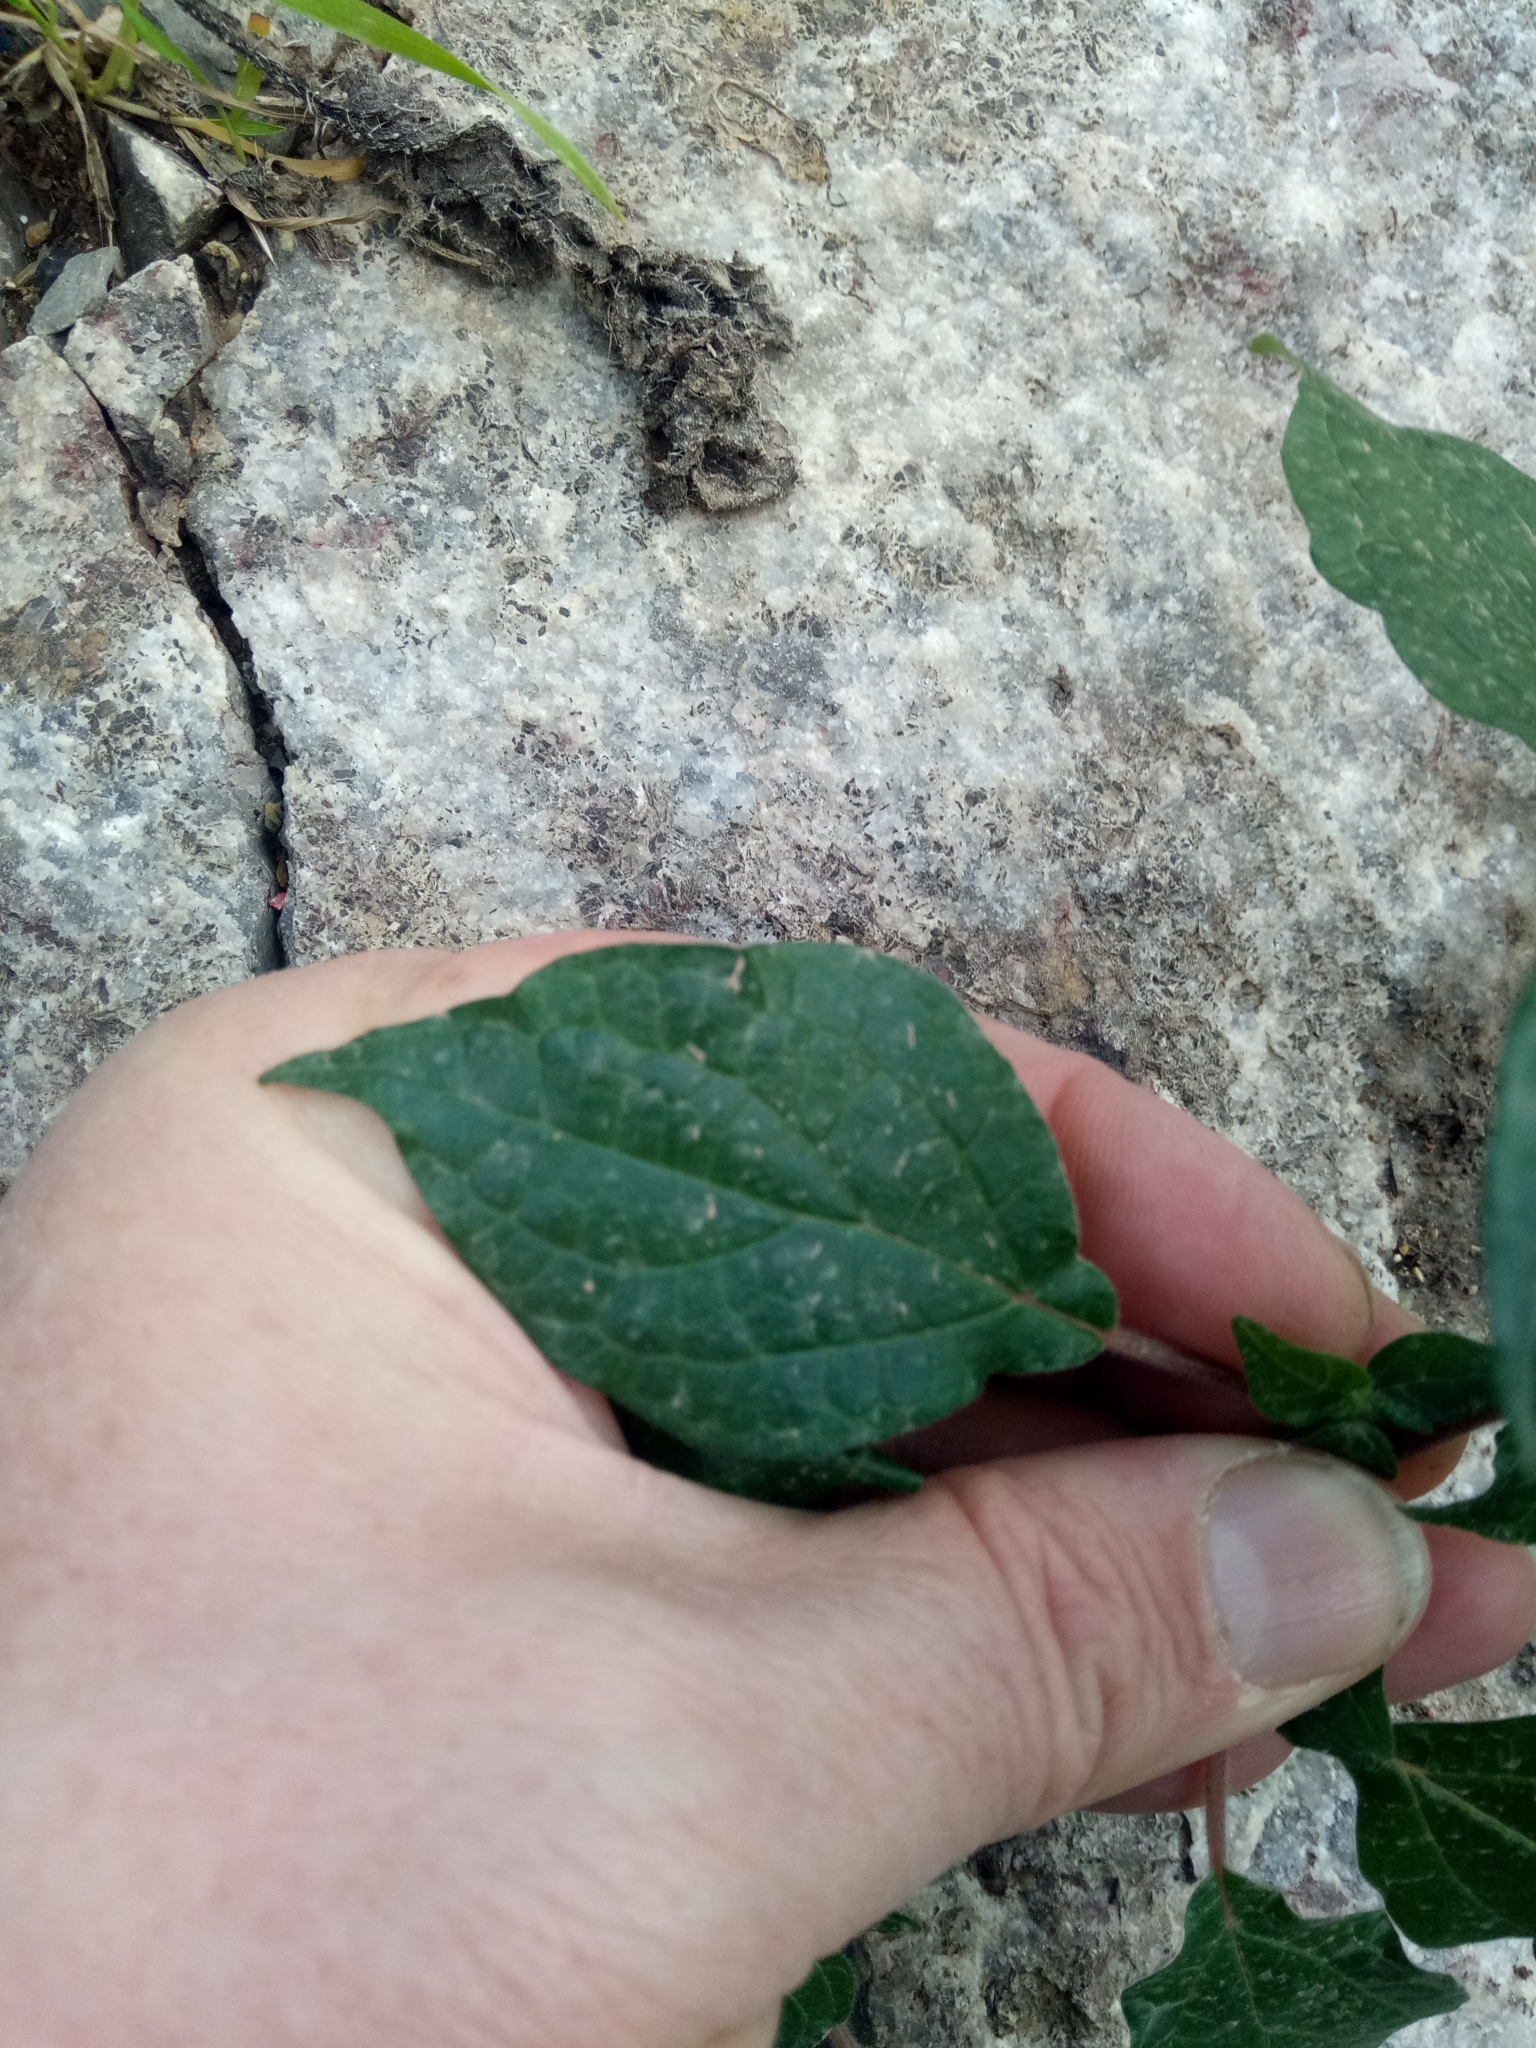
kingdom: Plantae
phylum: Tracheophyta
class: Magnoliopsida
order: Rosales
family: Urticaceae
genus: Parietaria
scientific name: Parietaria judaica
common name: Pellitory-of-the-wall
